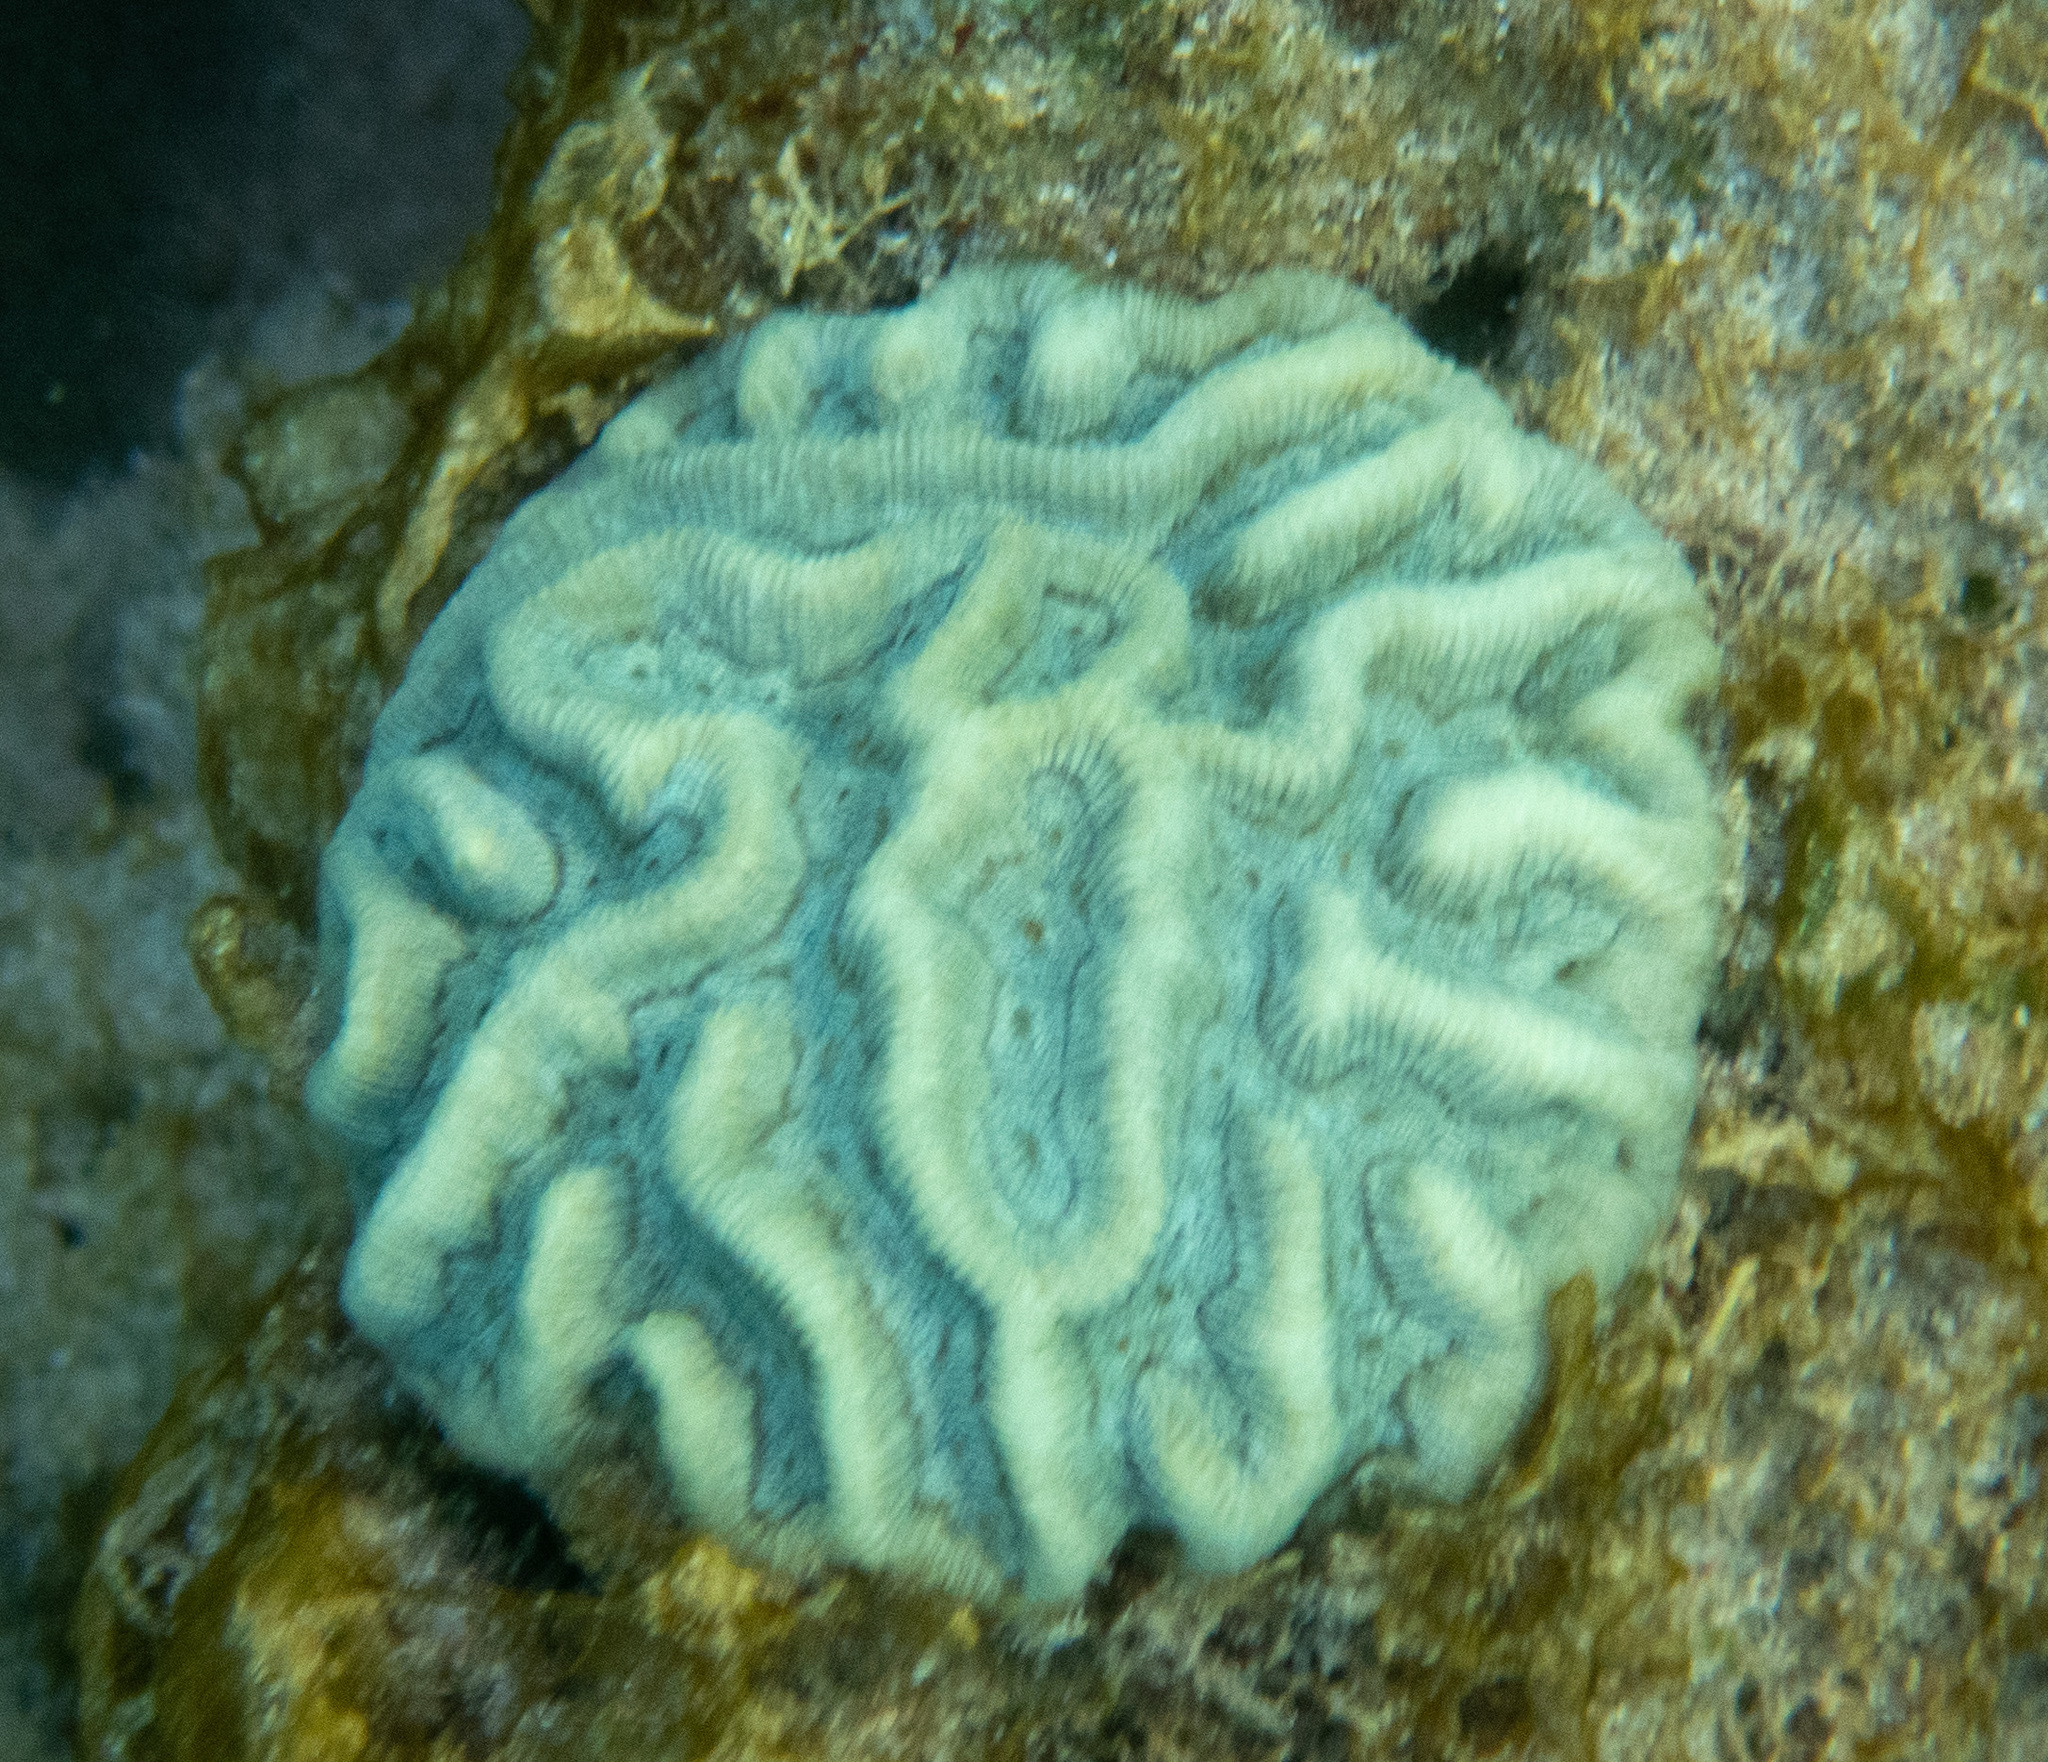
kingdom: Animalia
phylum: Cnidaria
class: Anthozoa
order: Scleractinia
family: Faviidae
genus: Colpophyllia
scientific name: Colpophyllia natans
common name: Boulder brain coral
